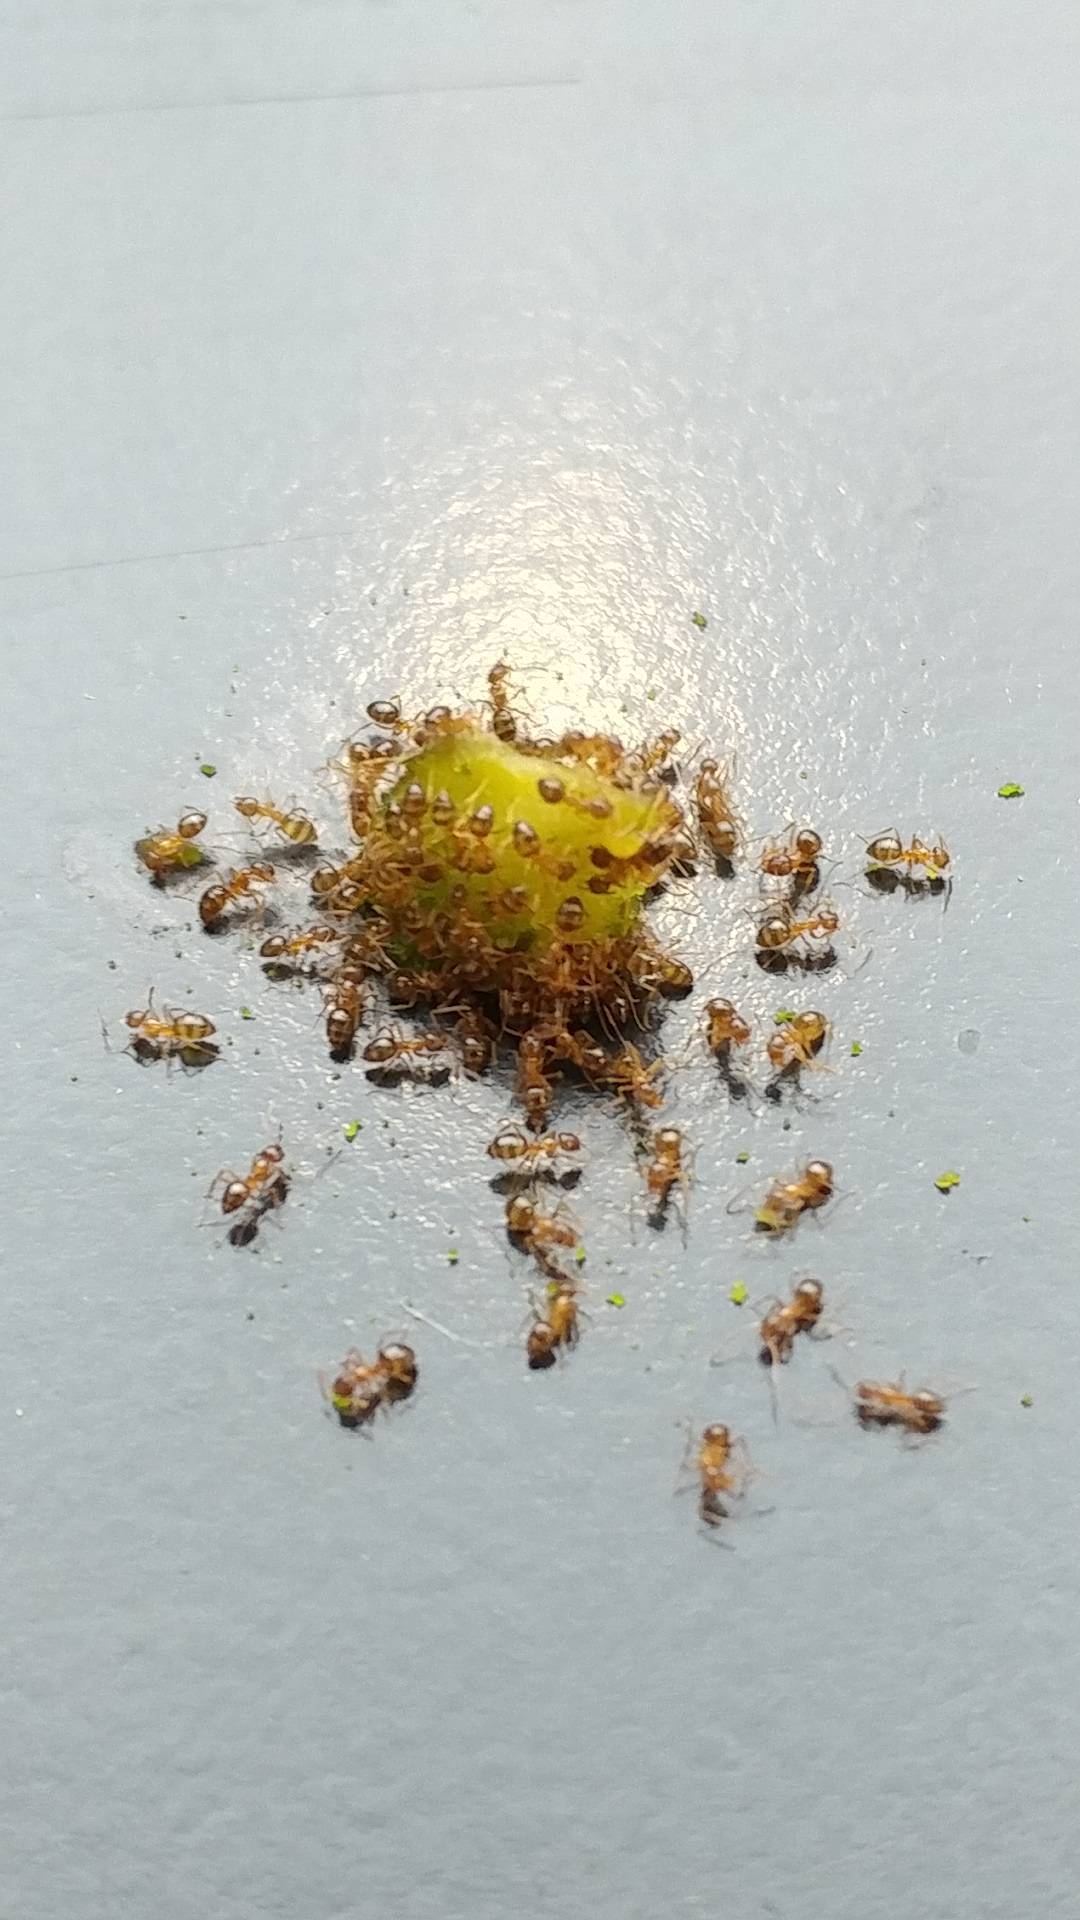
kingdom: Animalia
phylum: Arthropoda
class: Insecta
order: Hymenoptera
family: Formicidae
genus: Paratrechina
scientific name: Paratrechina flavipes
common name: Eastern asian formicine ant
